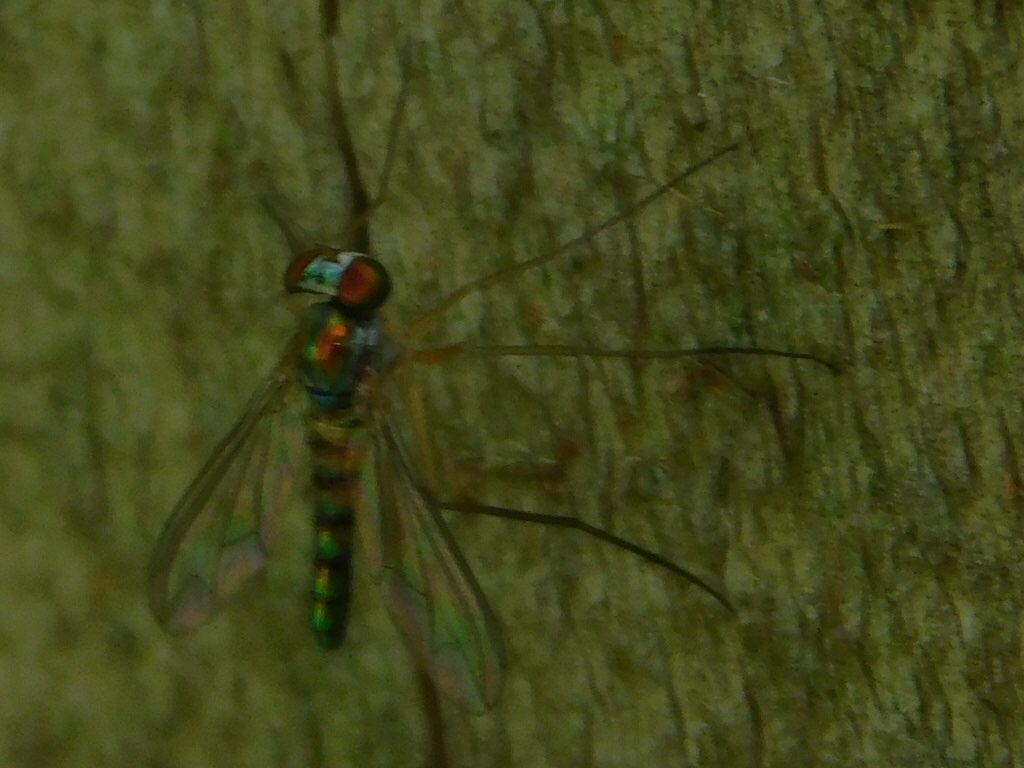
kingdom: Animalia
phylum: Arthropoda
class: Insecta
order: Diptera
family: Dolichopodidae
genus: Amblypsilopus
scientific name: Amblypsilopus variegatus
